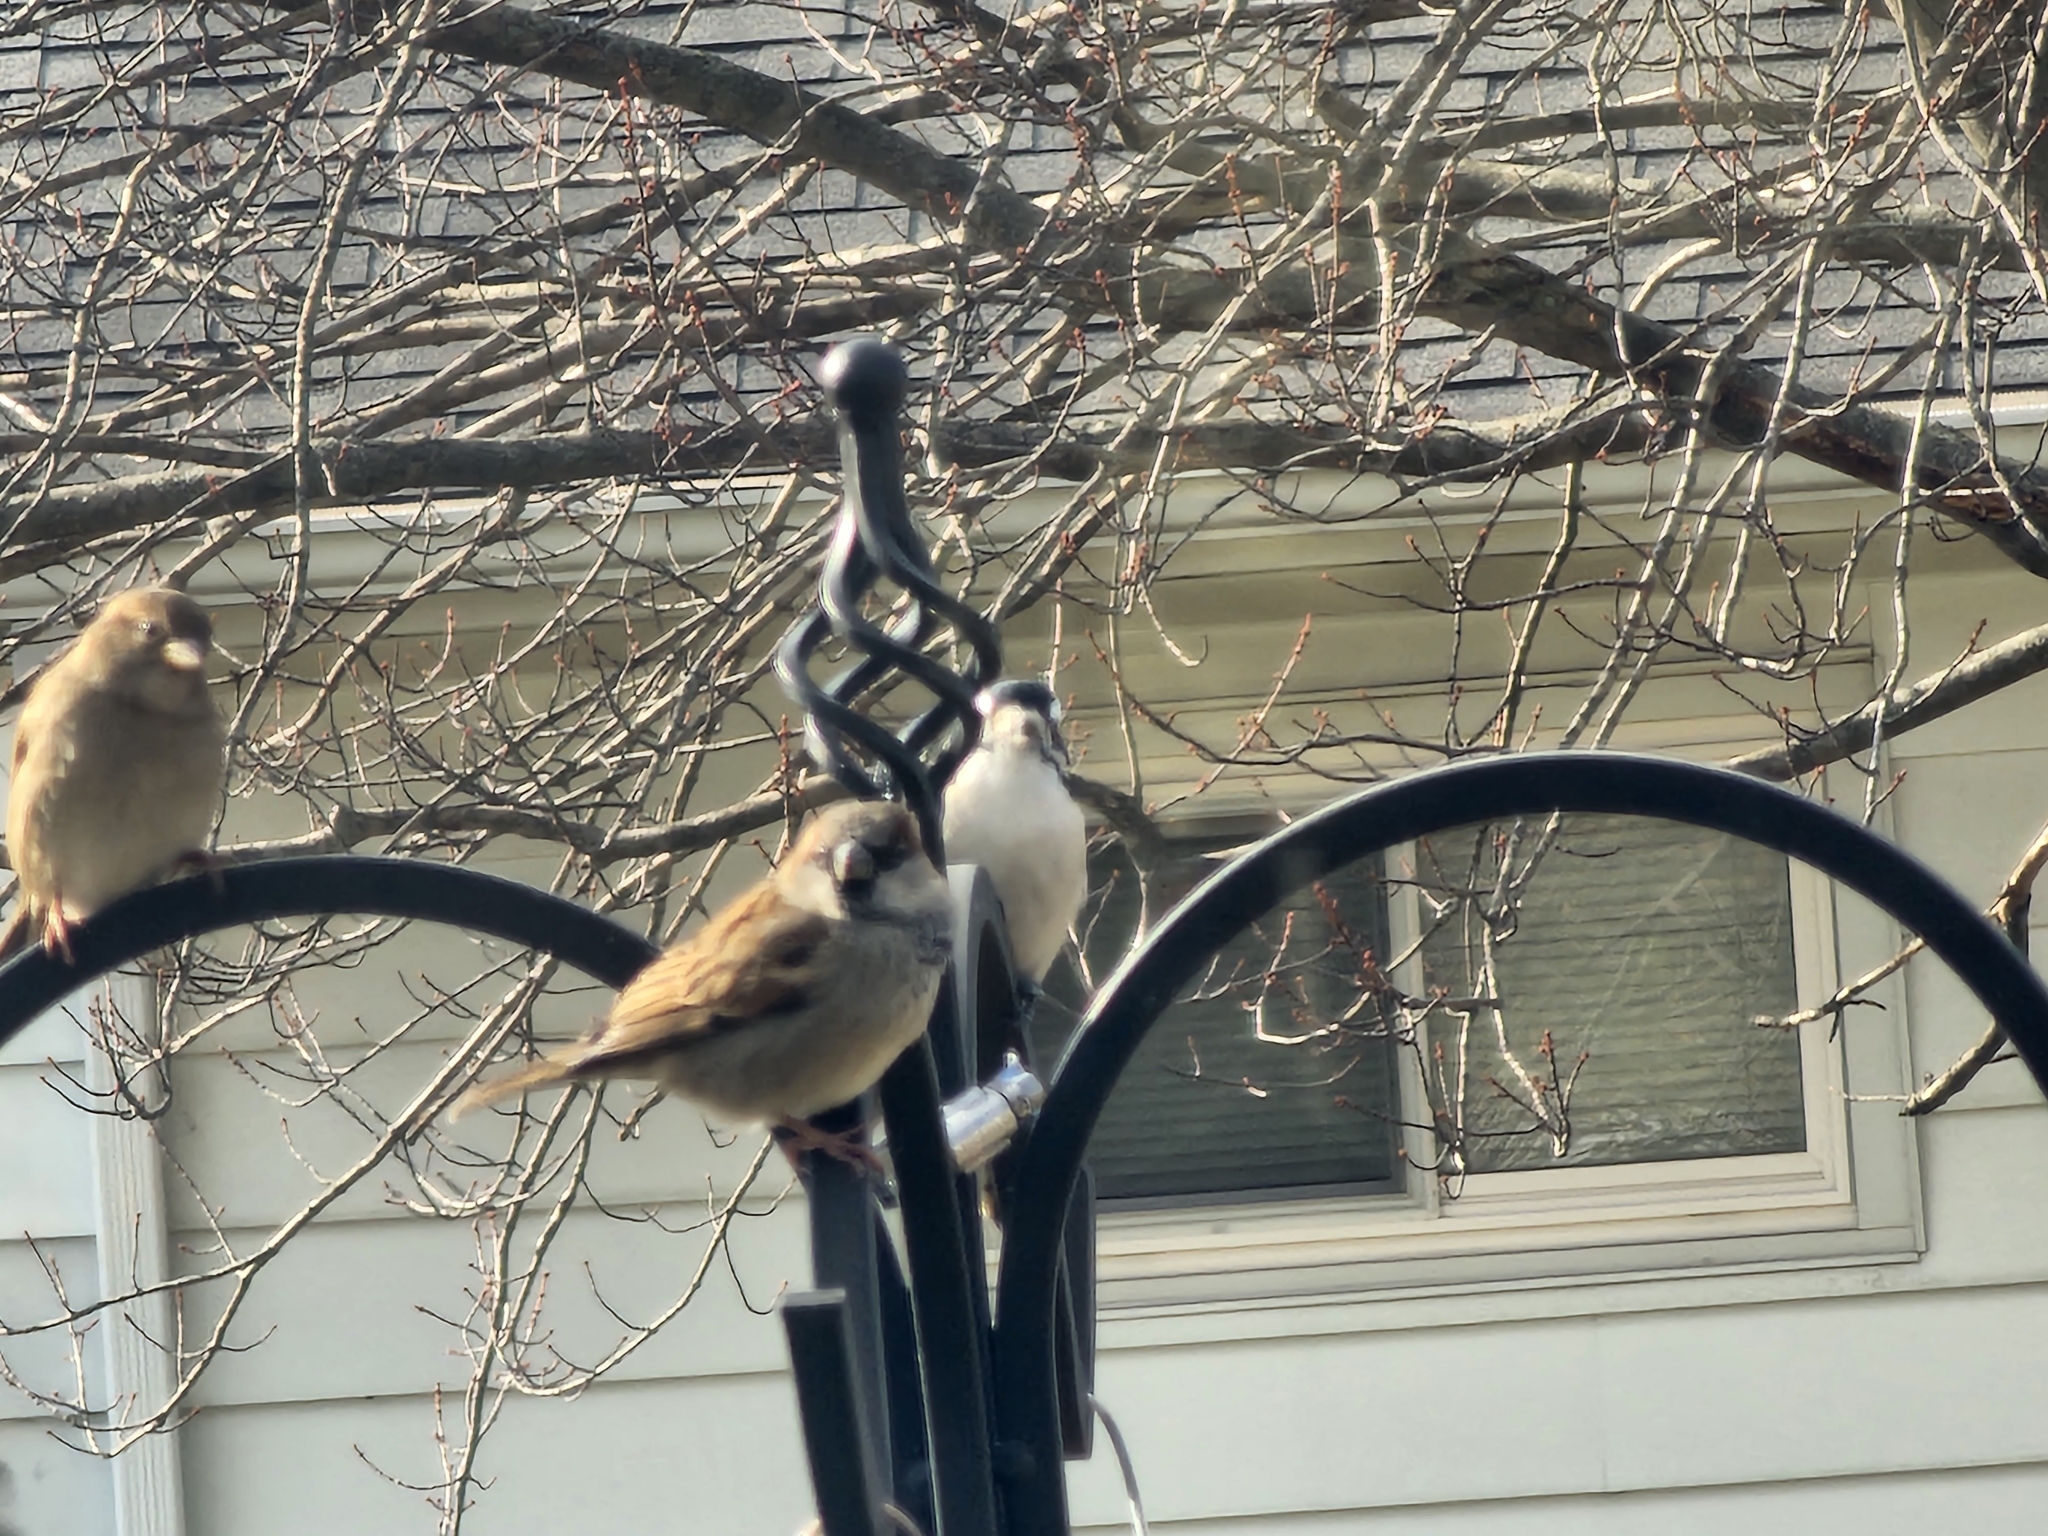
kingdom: Animalia
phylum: Chordata
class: Aves
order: Piciformes
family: Picidae
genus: Dryobates
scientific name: Dryobates pubescens
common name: Downy woodpecker
